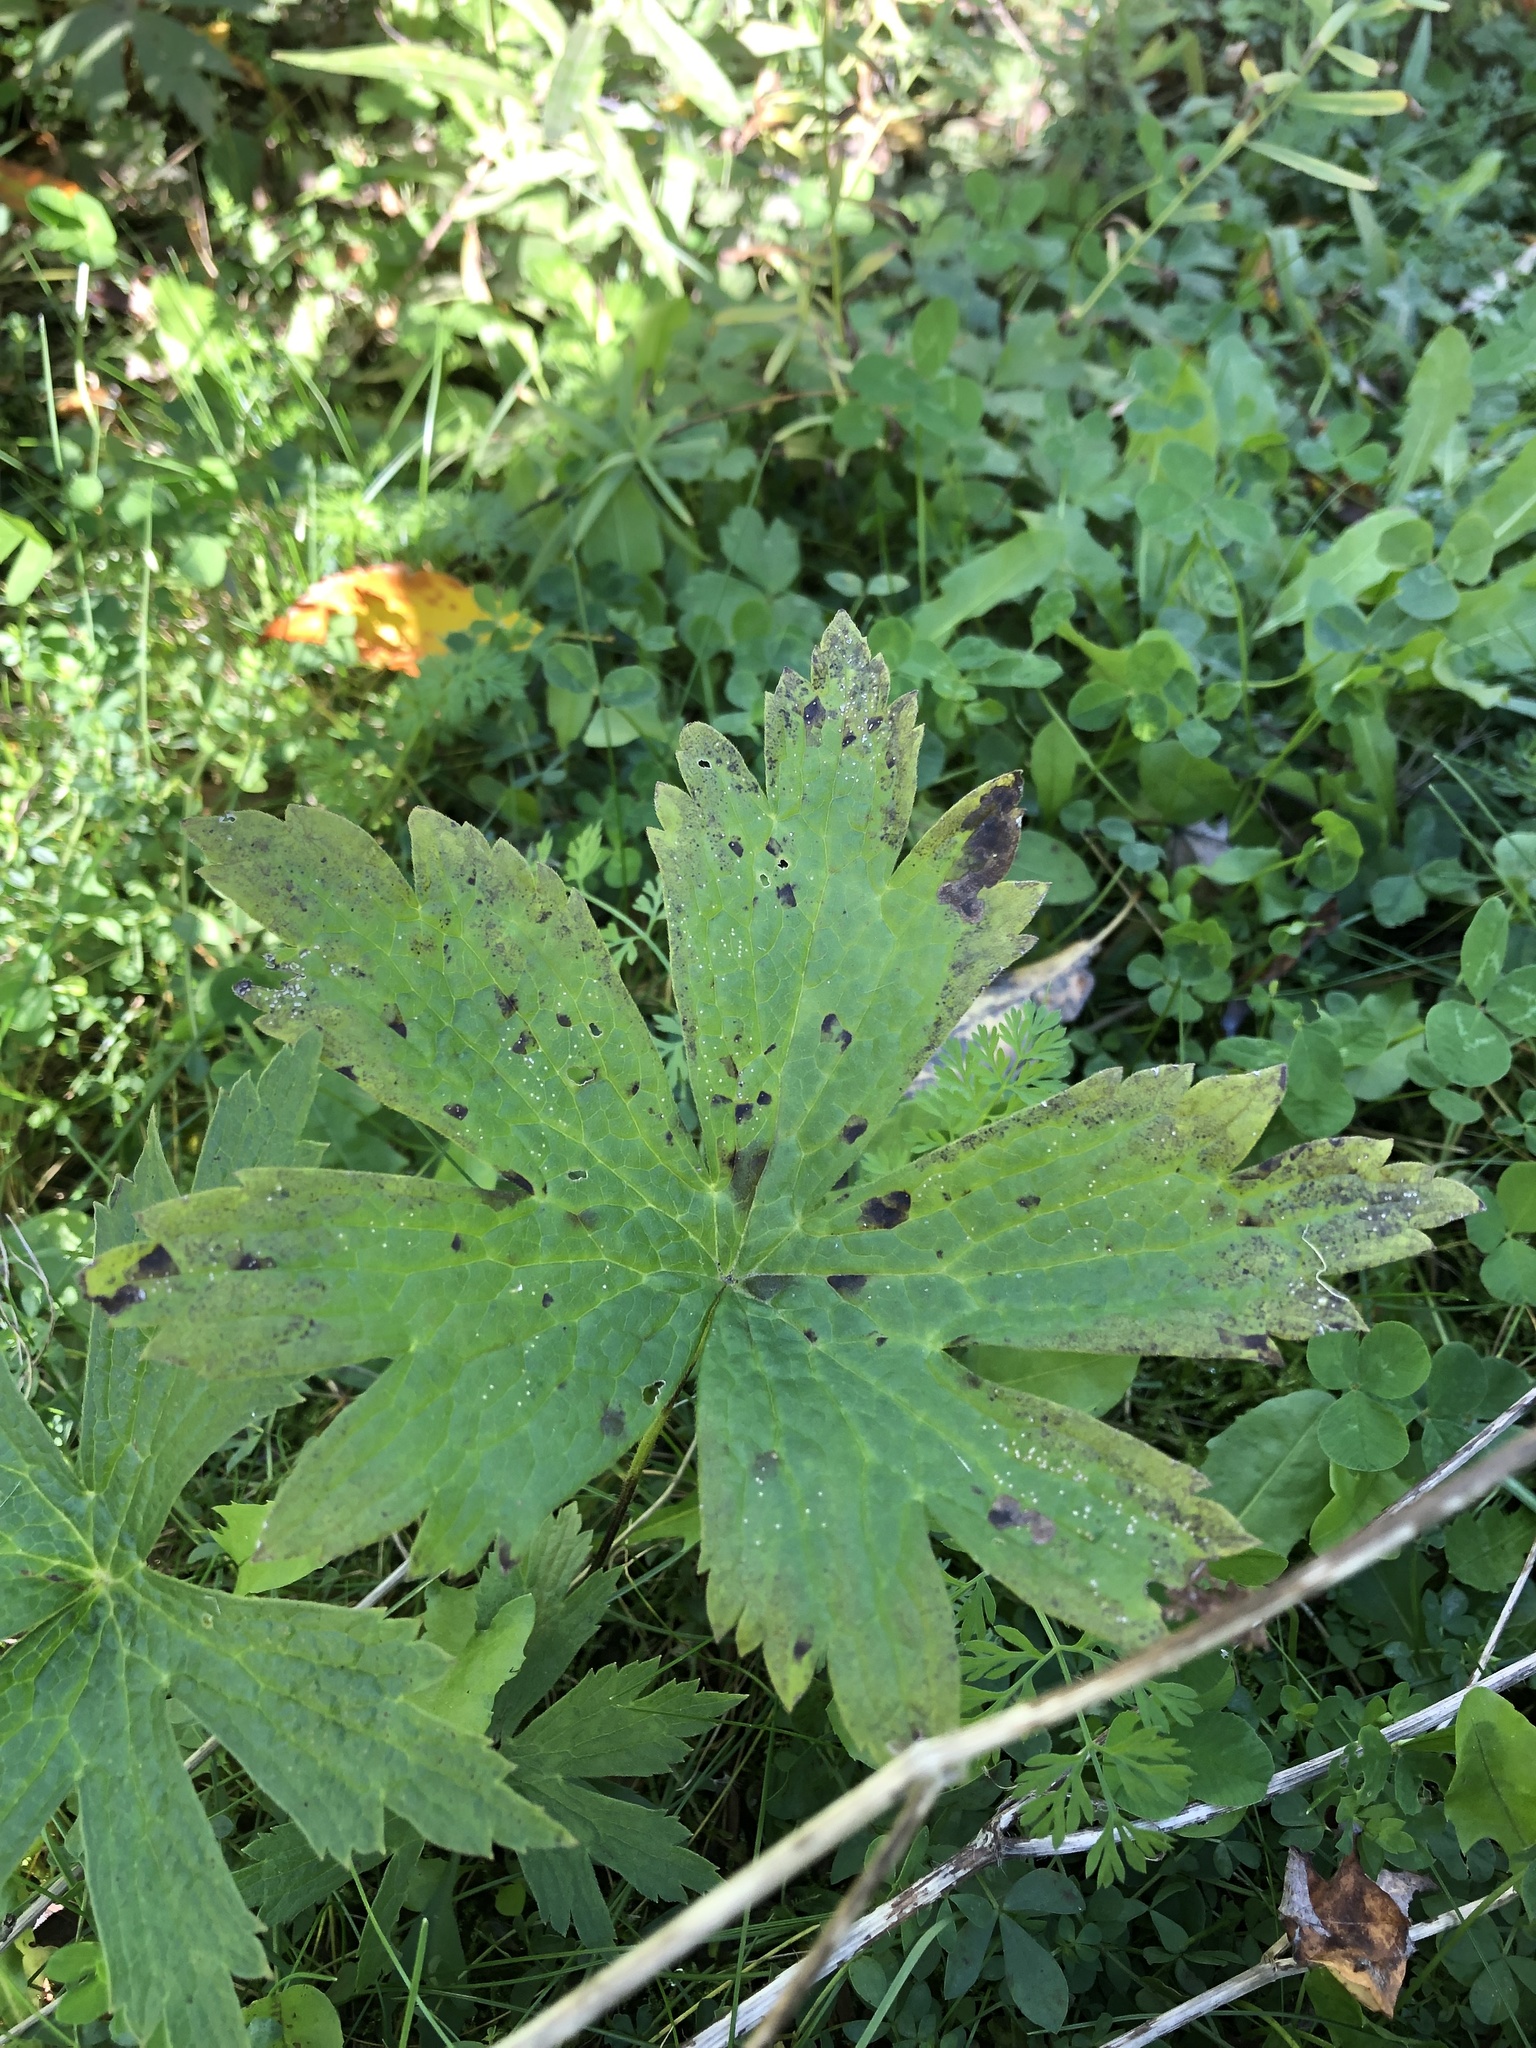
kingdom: Plantae
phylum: Tracheophyta
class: Magnoliopsida
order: Ranunculales
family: Ranunculaceae
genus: Anemonastrum
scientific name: Anemonastrum canadense
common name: Canada anemone
